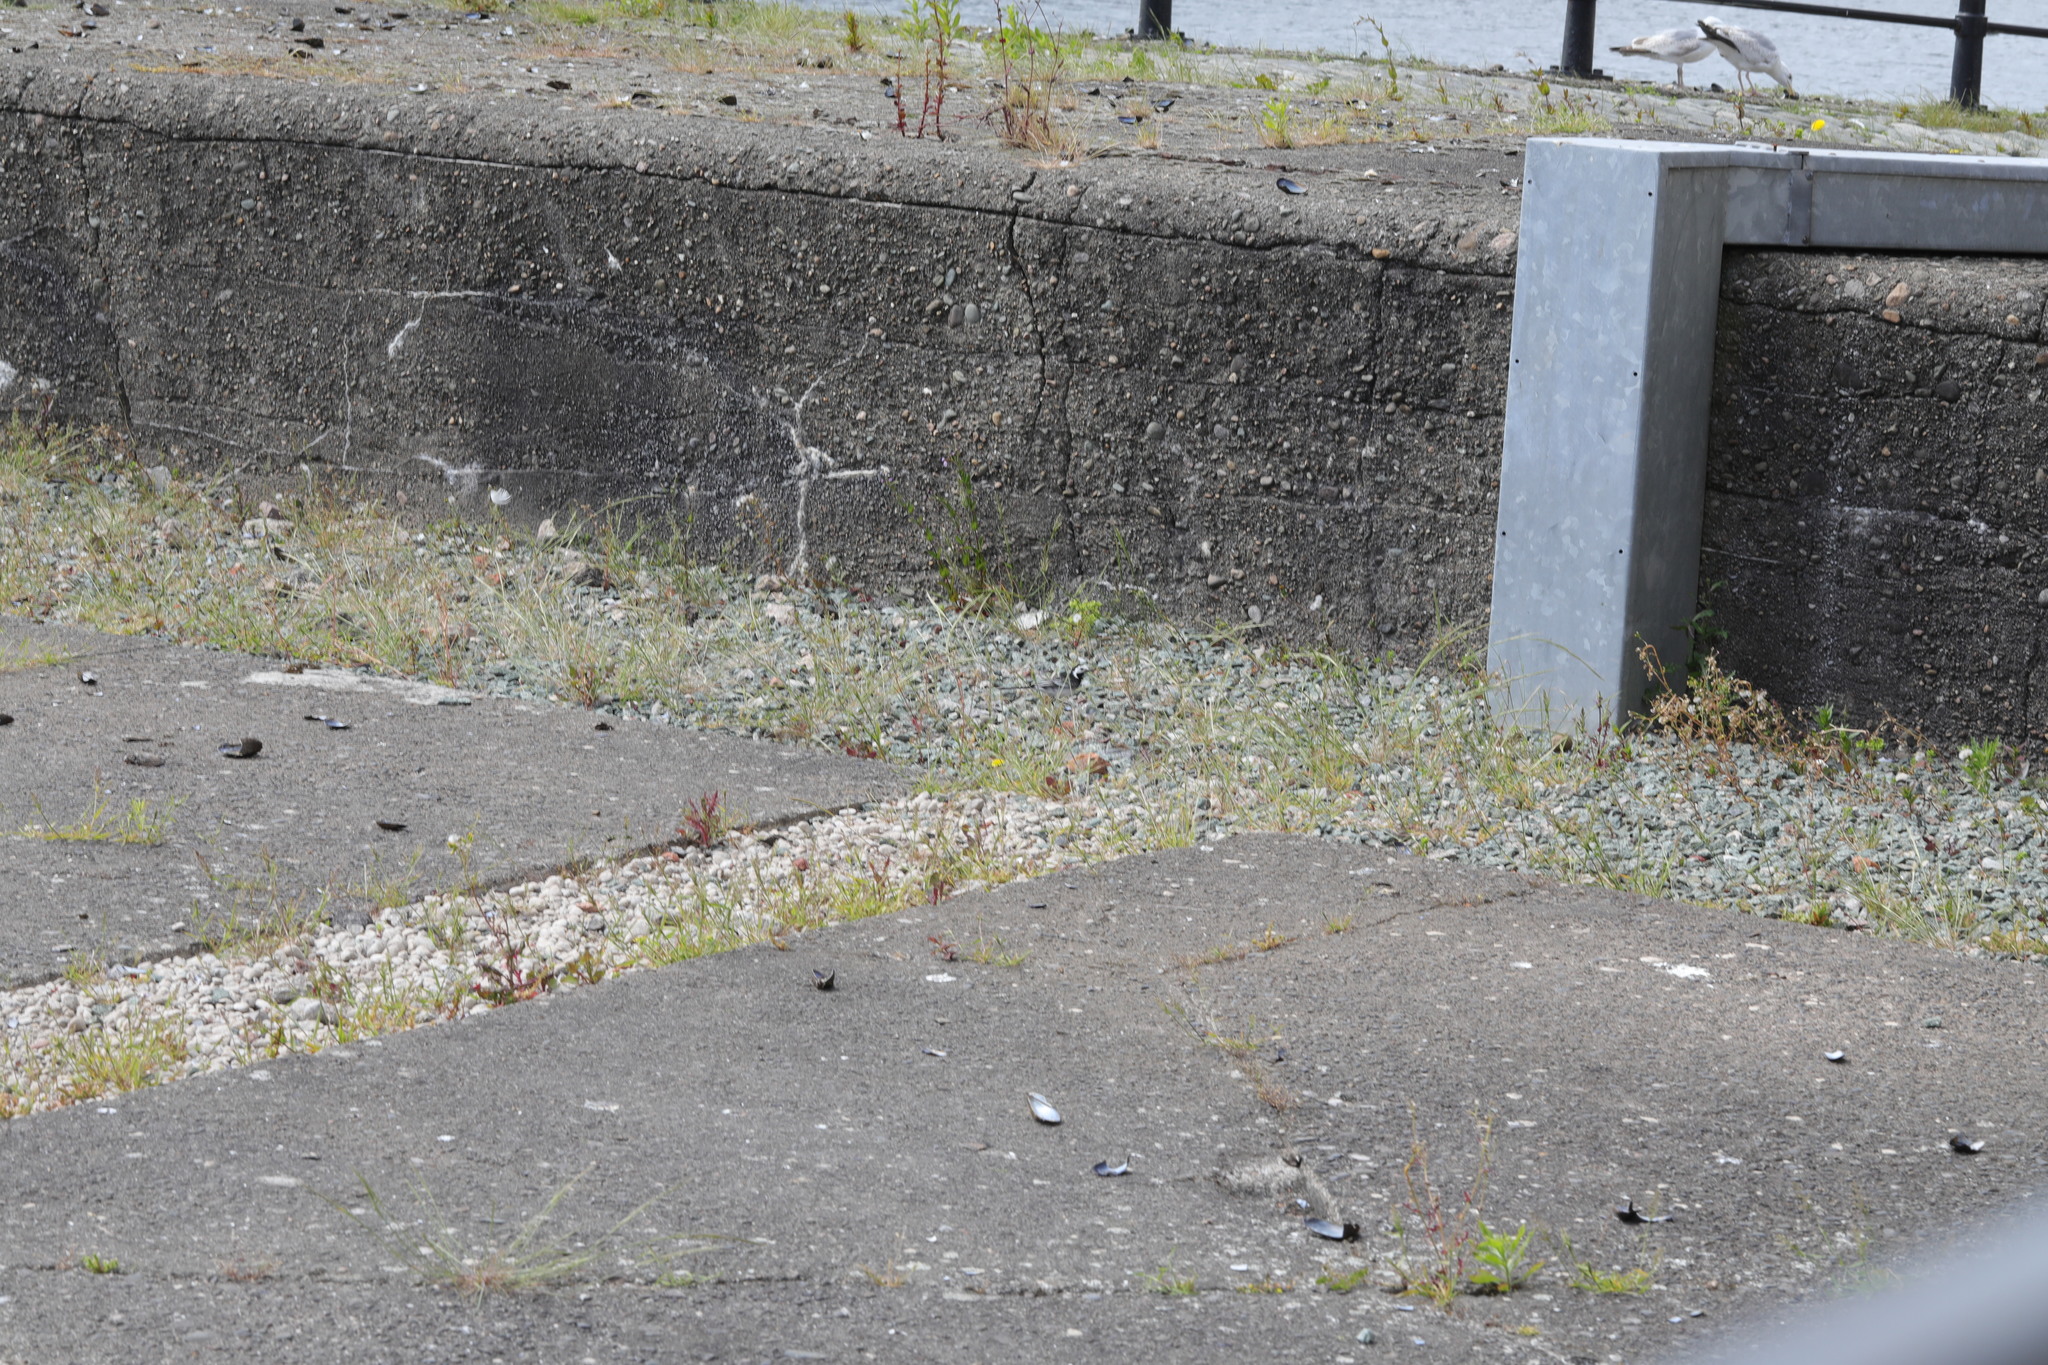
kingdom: Animalia
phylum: Chordata
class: Aves
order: Passeriformes
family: Motacillidae
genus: Motacilla
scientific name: Motacilla alba
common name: White wagtail
